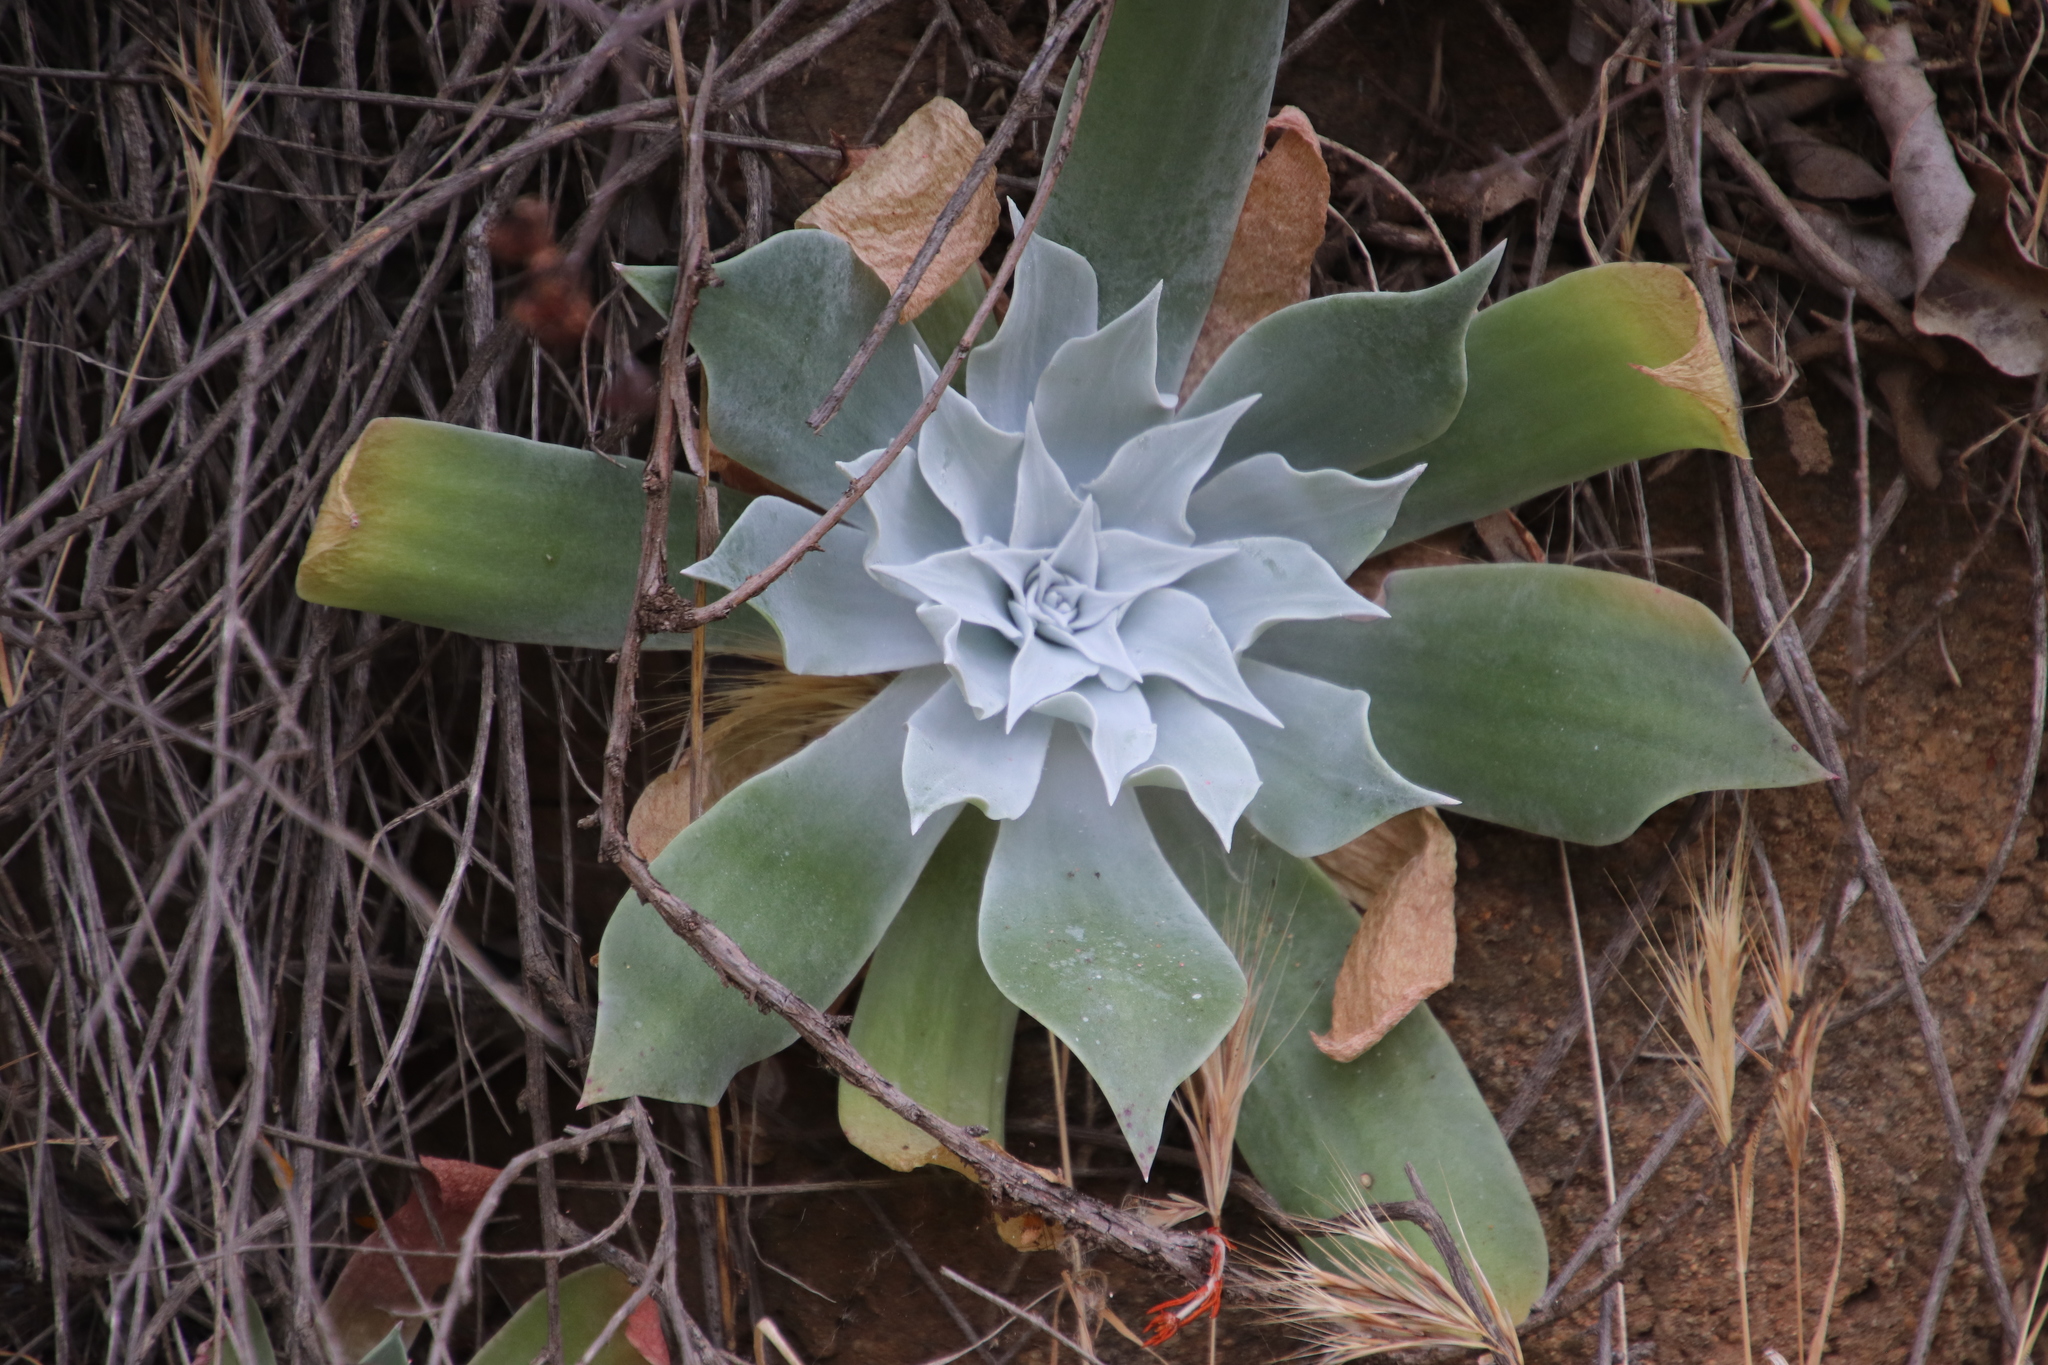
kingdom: Plantae
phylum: Tracheophyta
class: Magnoliopsida
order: Saxifragales
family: Crassulaceae
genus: Dudleya
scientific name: Dudleya pulverulenta
